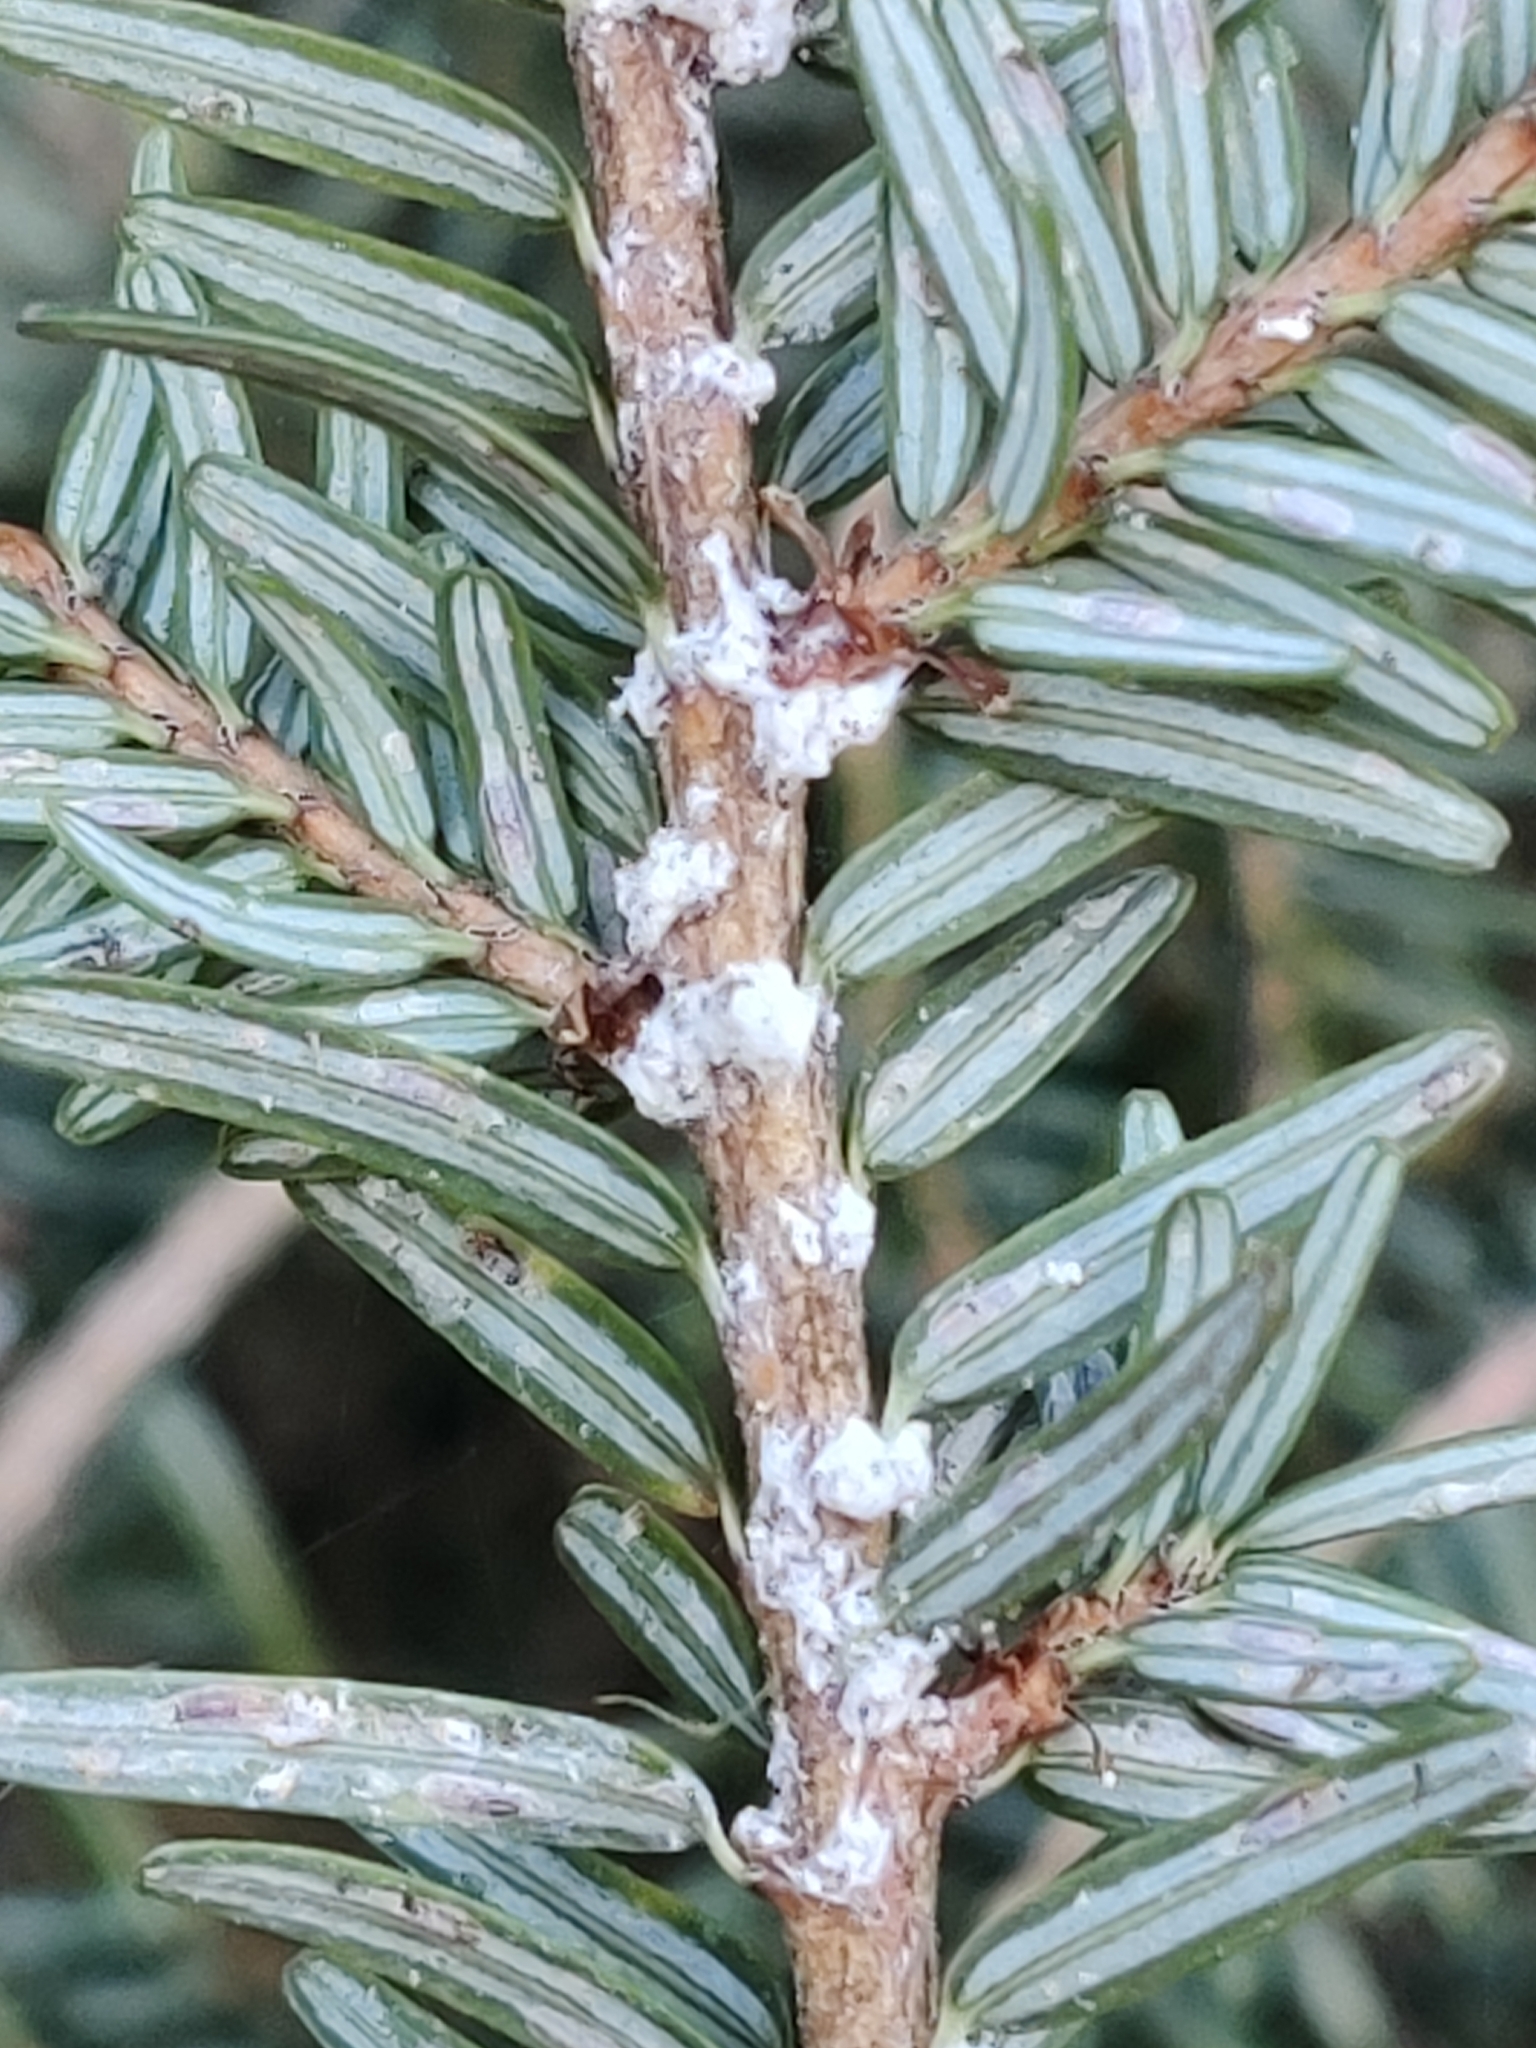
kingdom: Animalia
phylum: Arthropoda
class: Insecta
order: Hemiptera
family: Adelgidae
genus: Adelges
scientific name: Adelges tsugae
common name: Hemlock woolly adelgid
